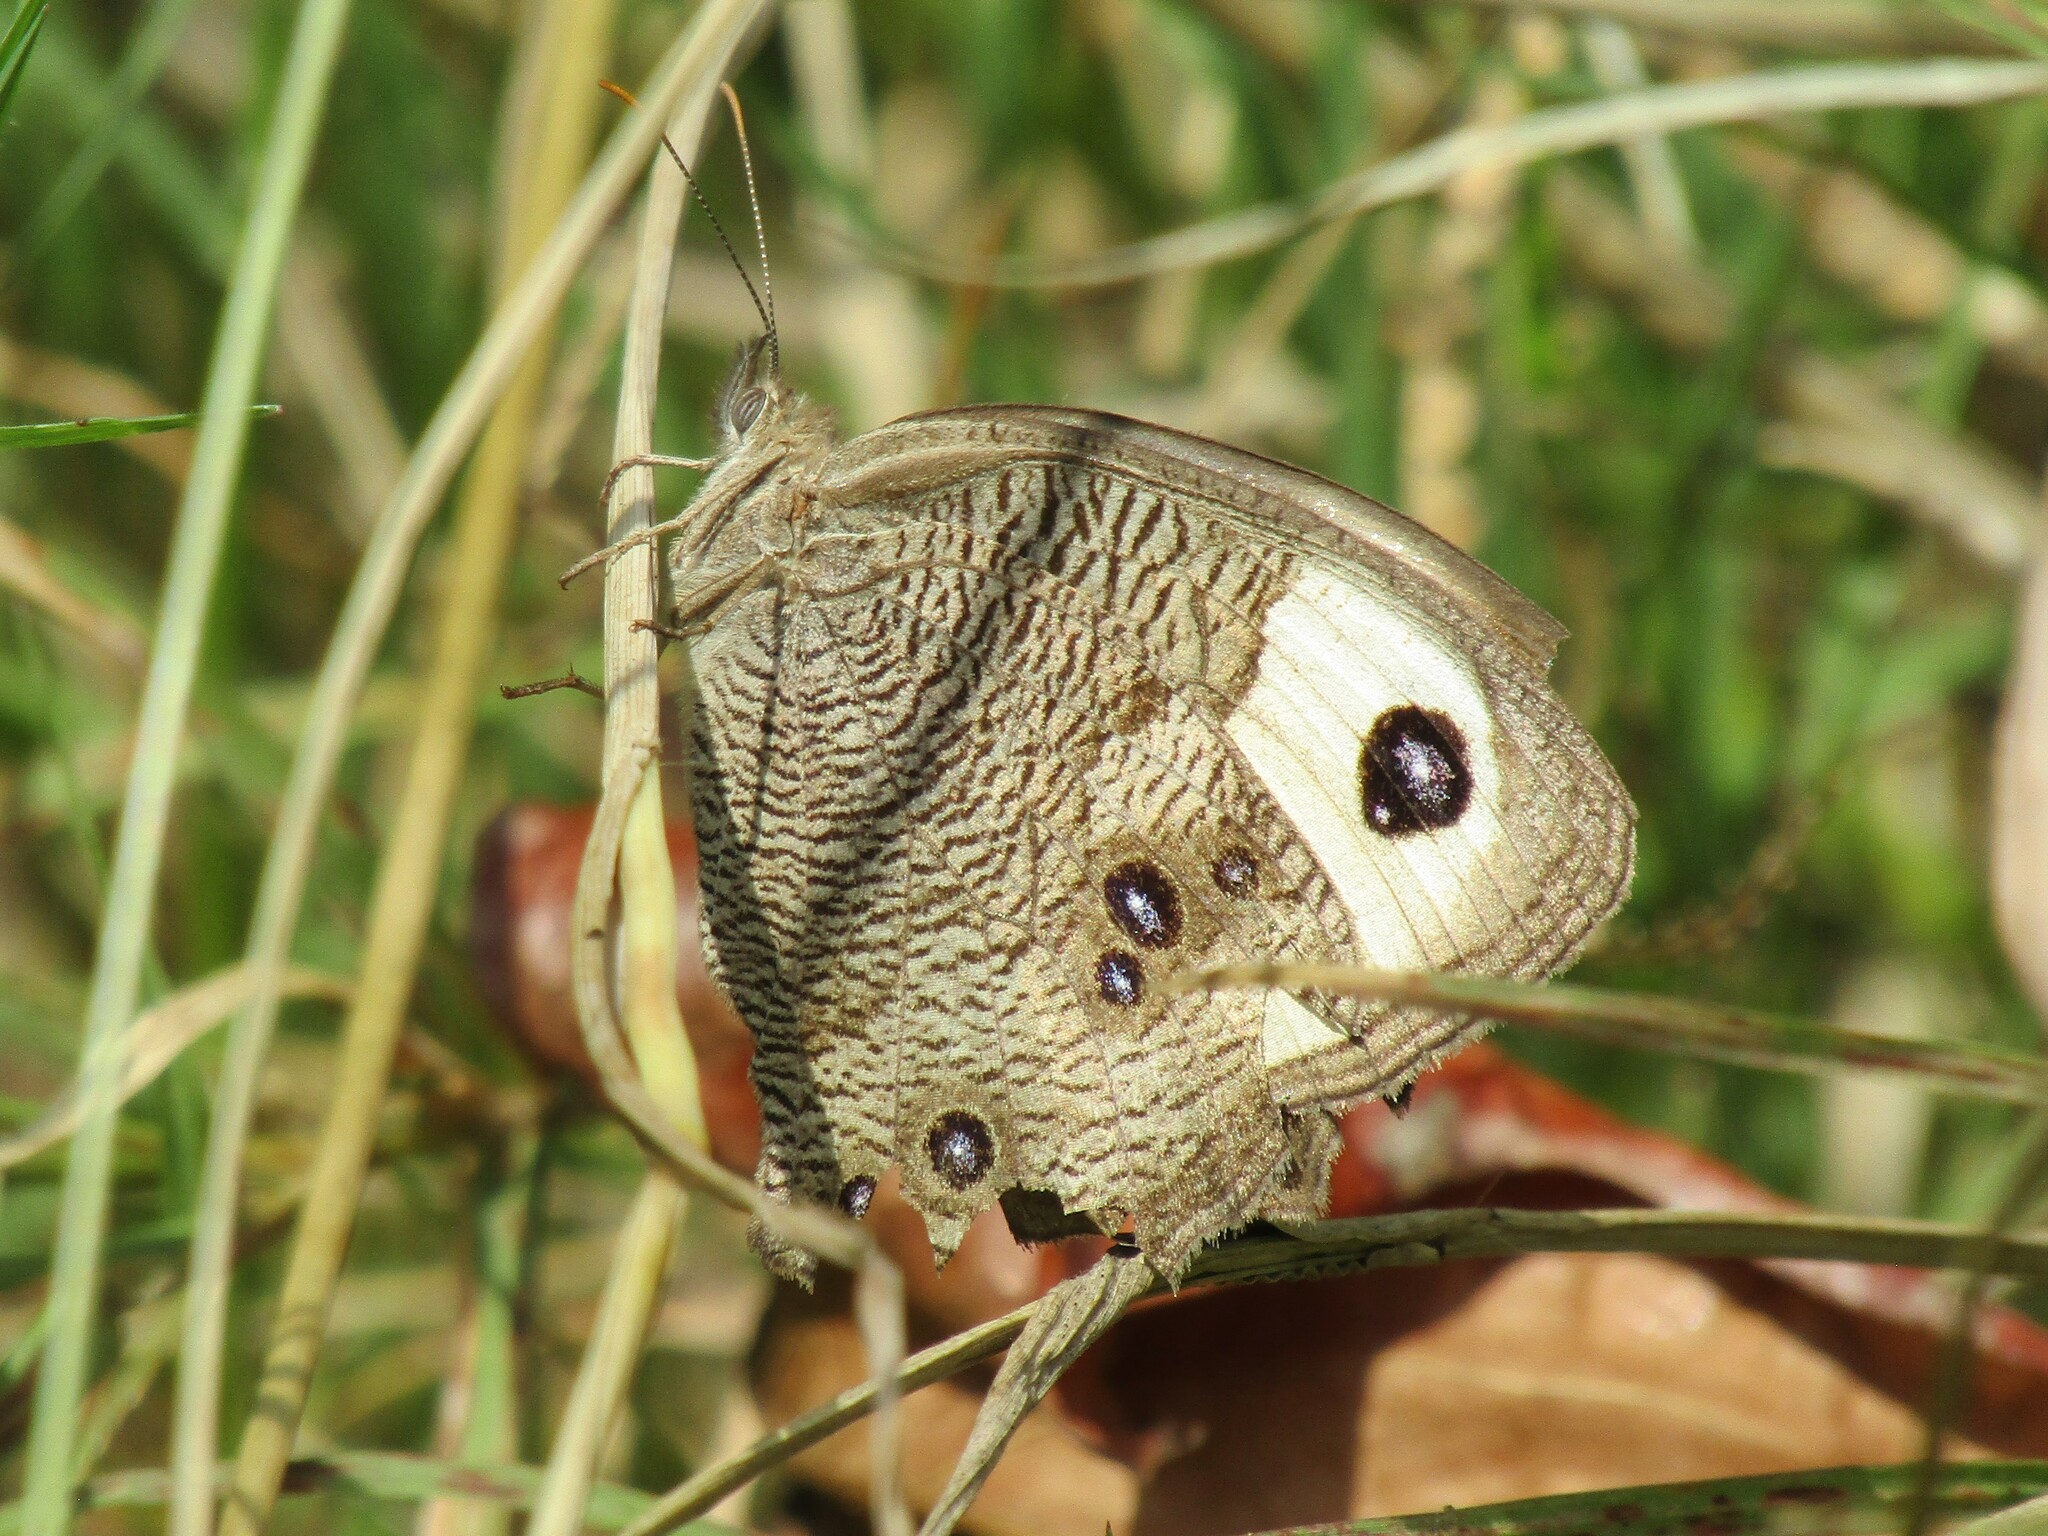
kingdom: Animalia
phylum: Arthropoda
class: Insecta
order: Lepidoptera
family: Nymphalidae
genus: Cercyonis
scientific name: Cercyonis pegala
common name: Common wood-nymph
